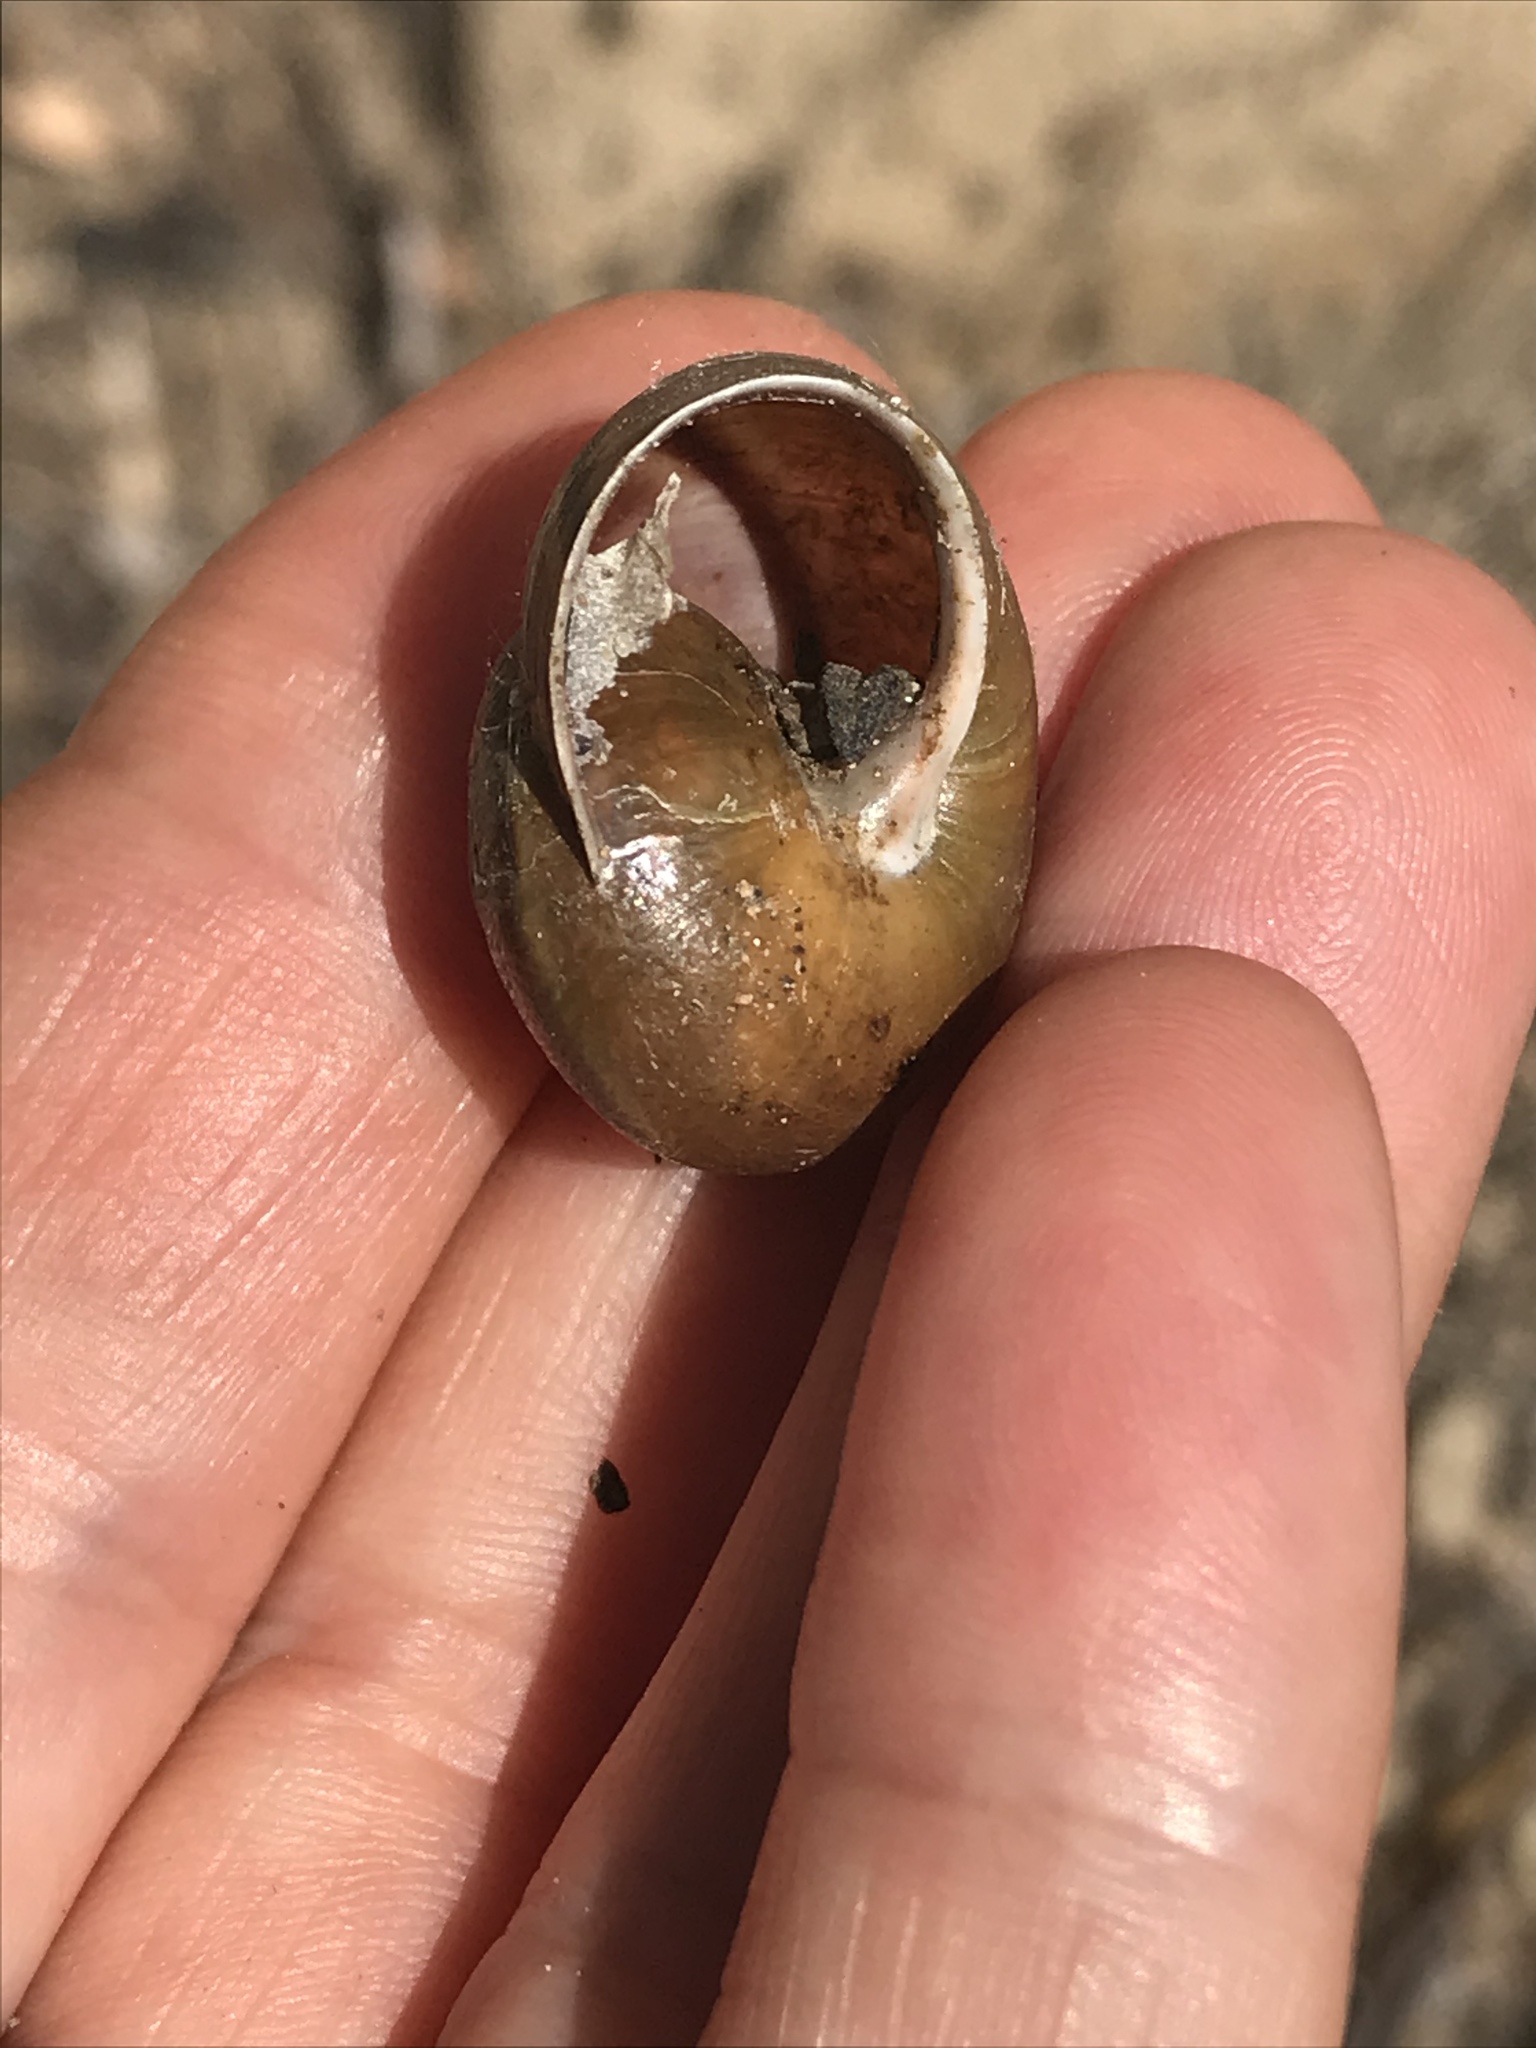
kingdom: Animalia
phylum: Mollusca
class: Gastropoda
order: Stylommatophora
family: Xanthonychidae
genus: Helminthoglypta
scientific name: Helminthoglypta tudiculata
